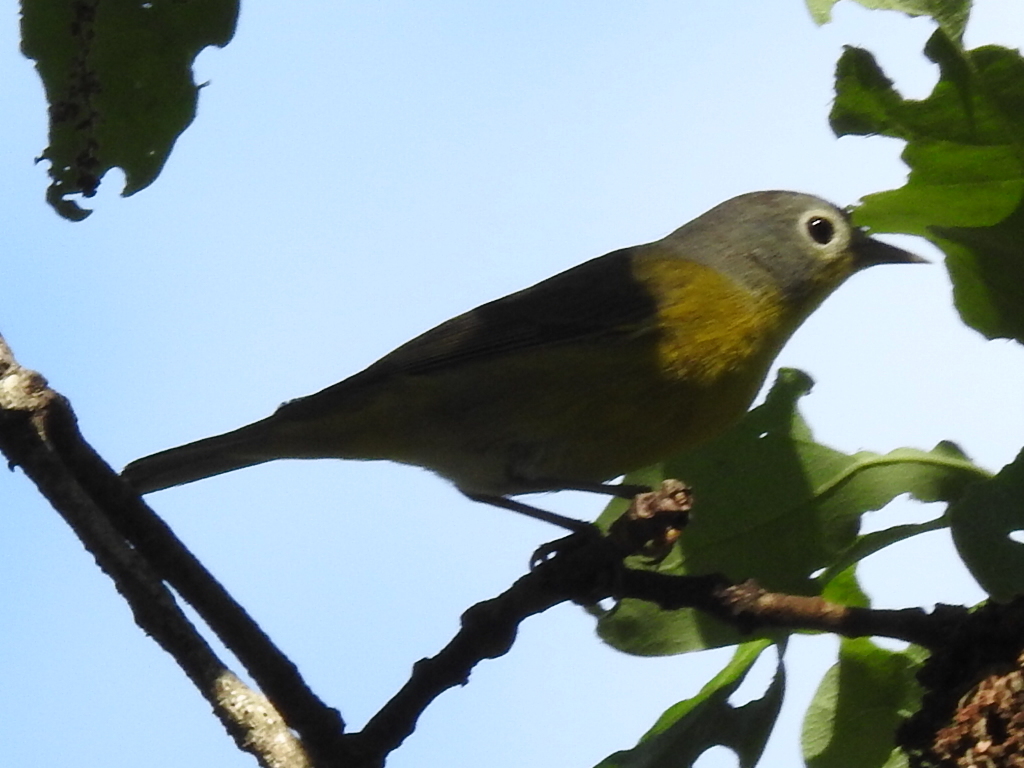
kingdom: Animalia
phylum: Chordata
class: Aves
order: Passeriformes
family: Parulidae
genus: Leiothlypis
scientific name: Leiothlypis ruficapilla
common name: Nashville warbler
